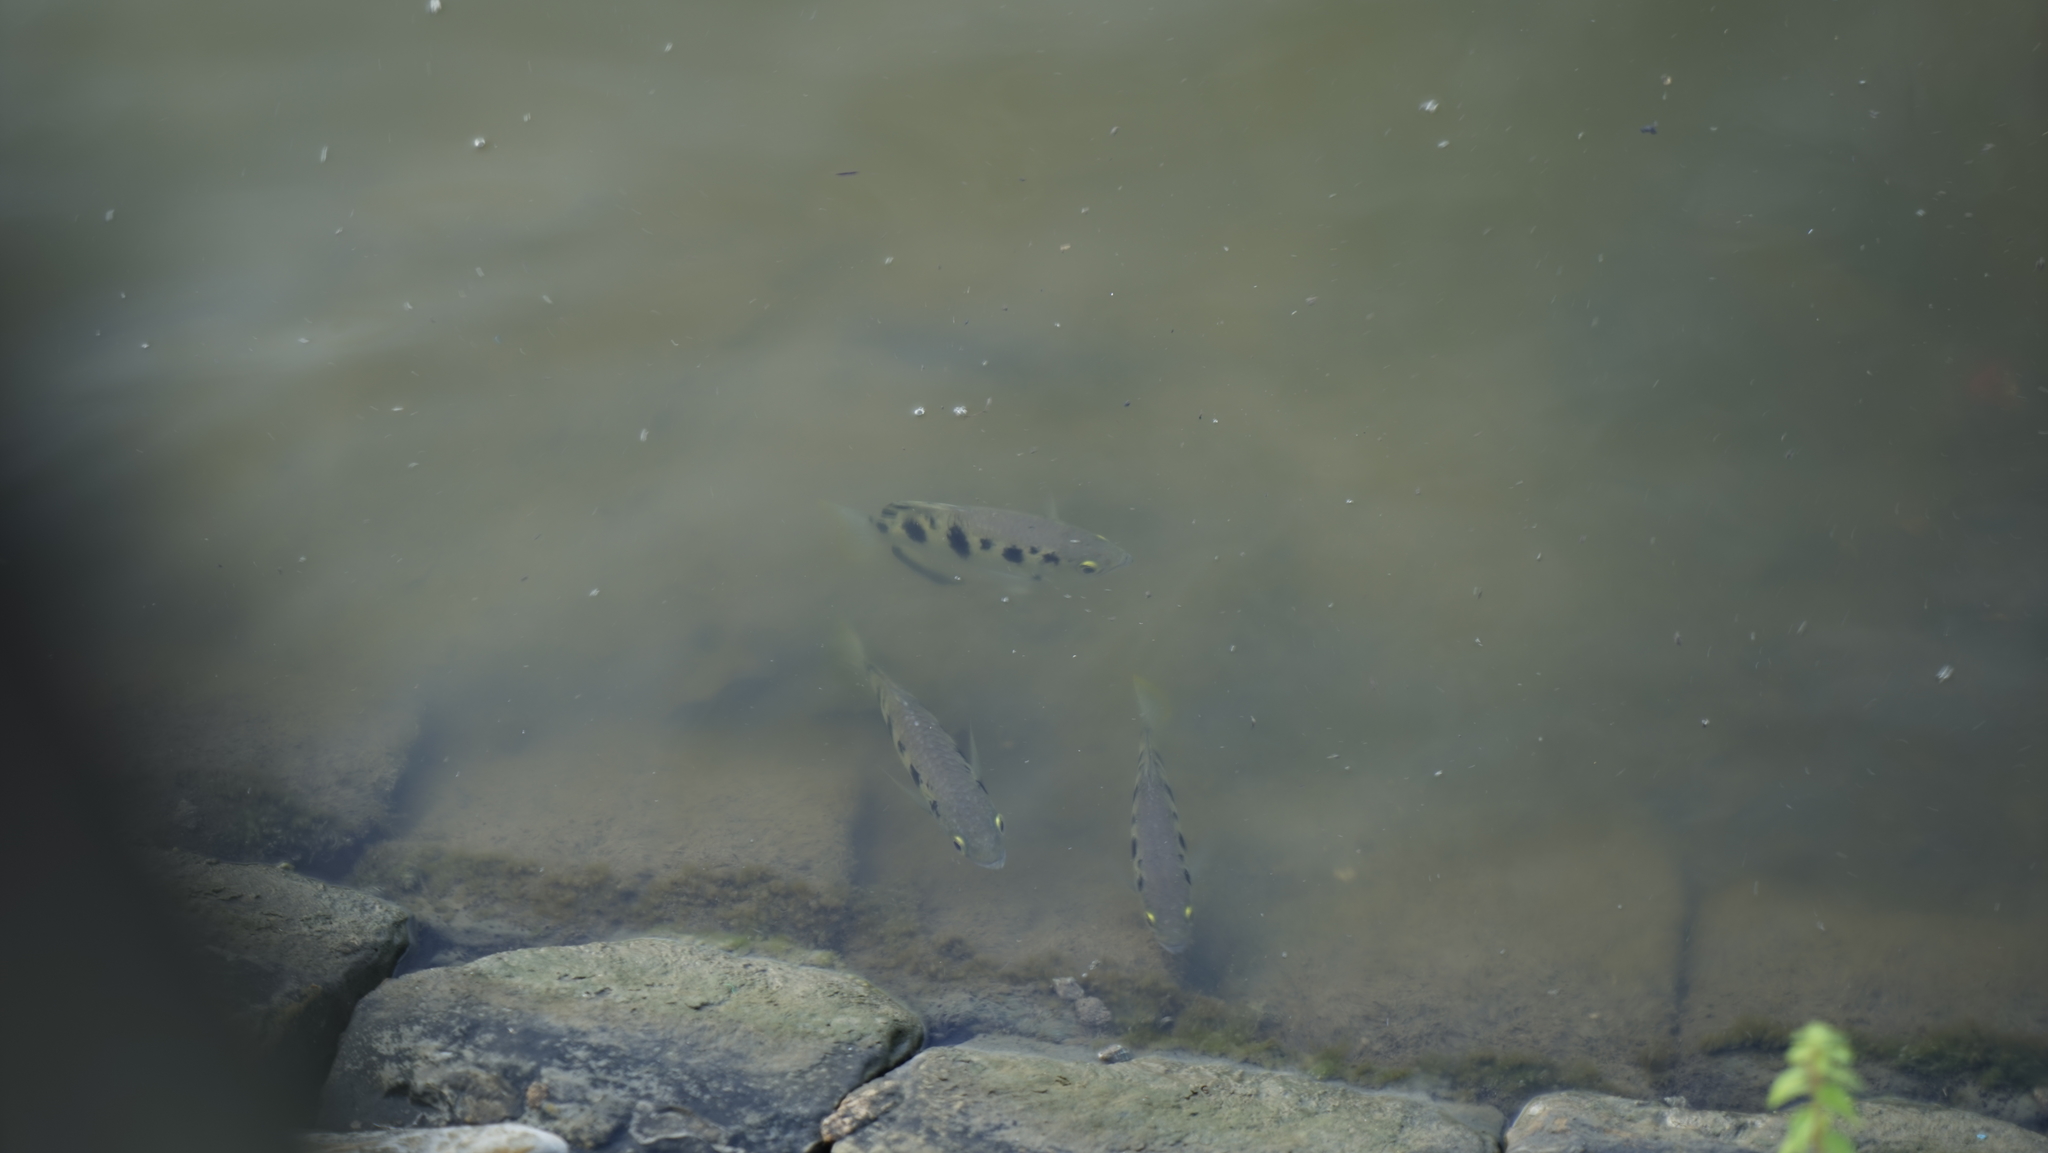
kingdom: Animalia
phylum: Chordata
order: Perciformes
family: Toxotidae
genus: Toxotes
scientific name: Toxotes chatareus
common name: Spotted archerfish
